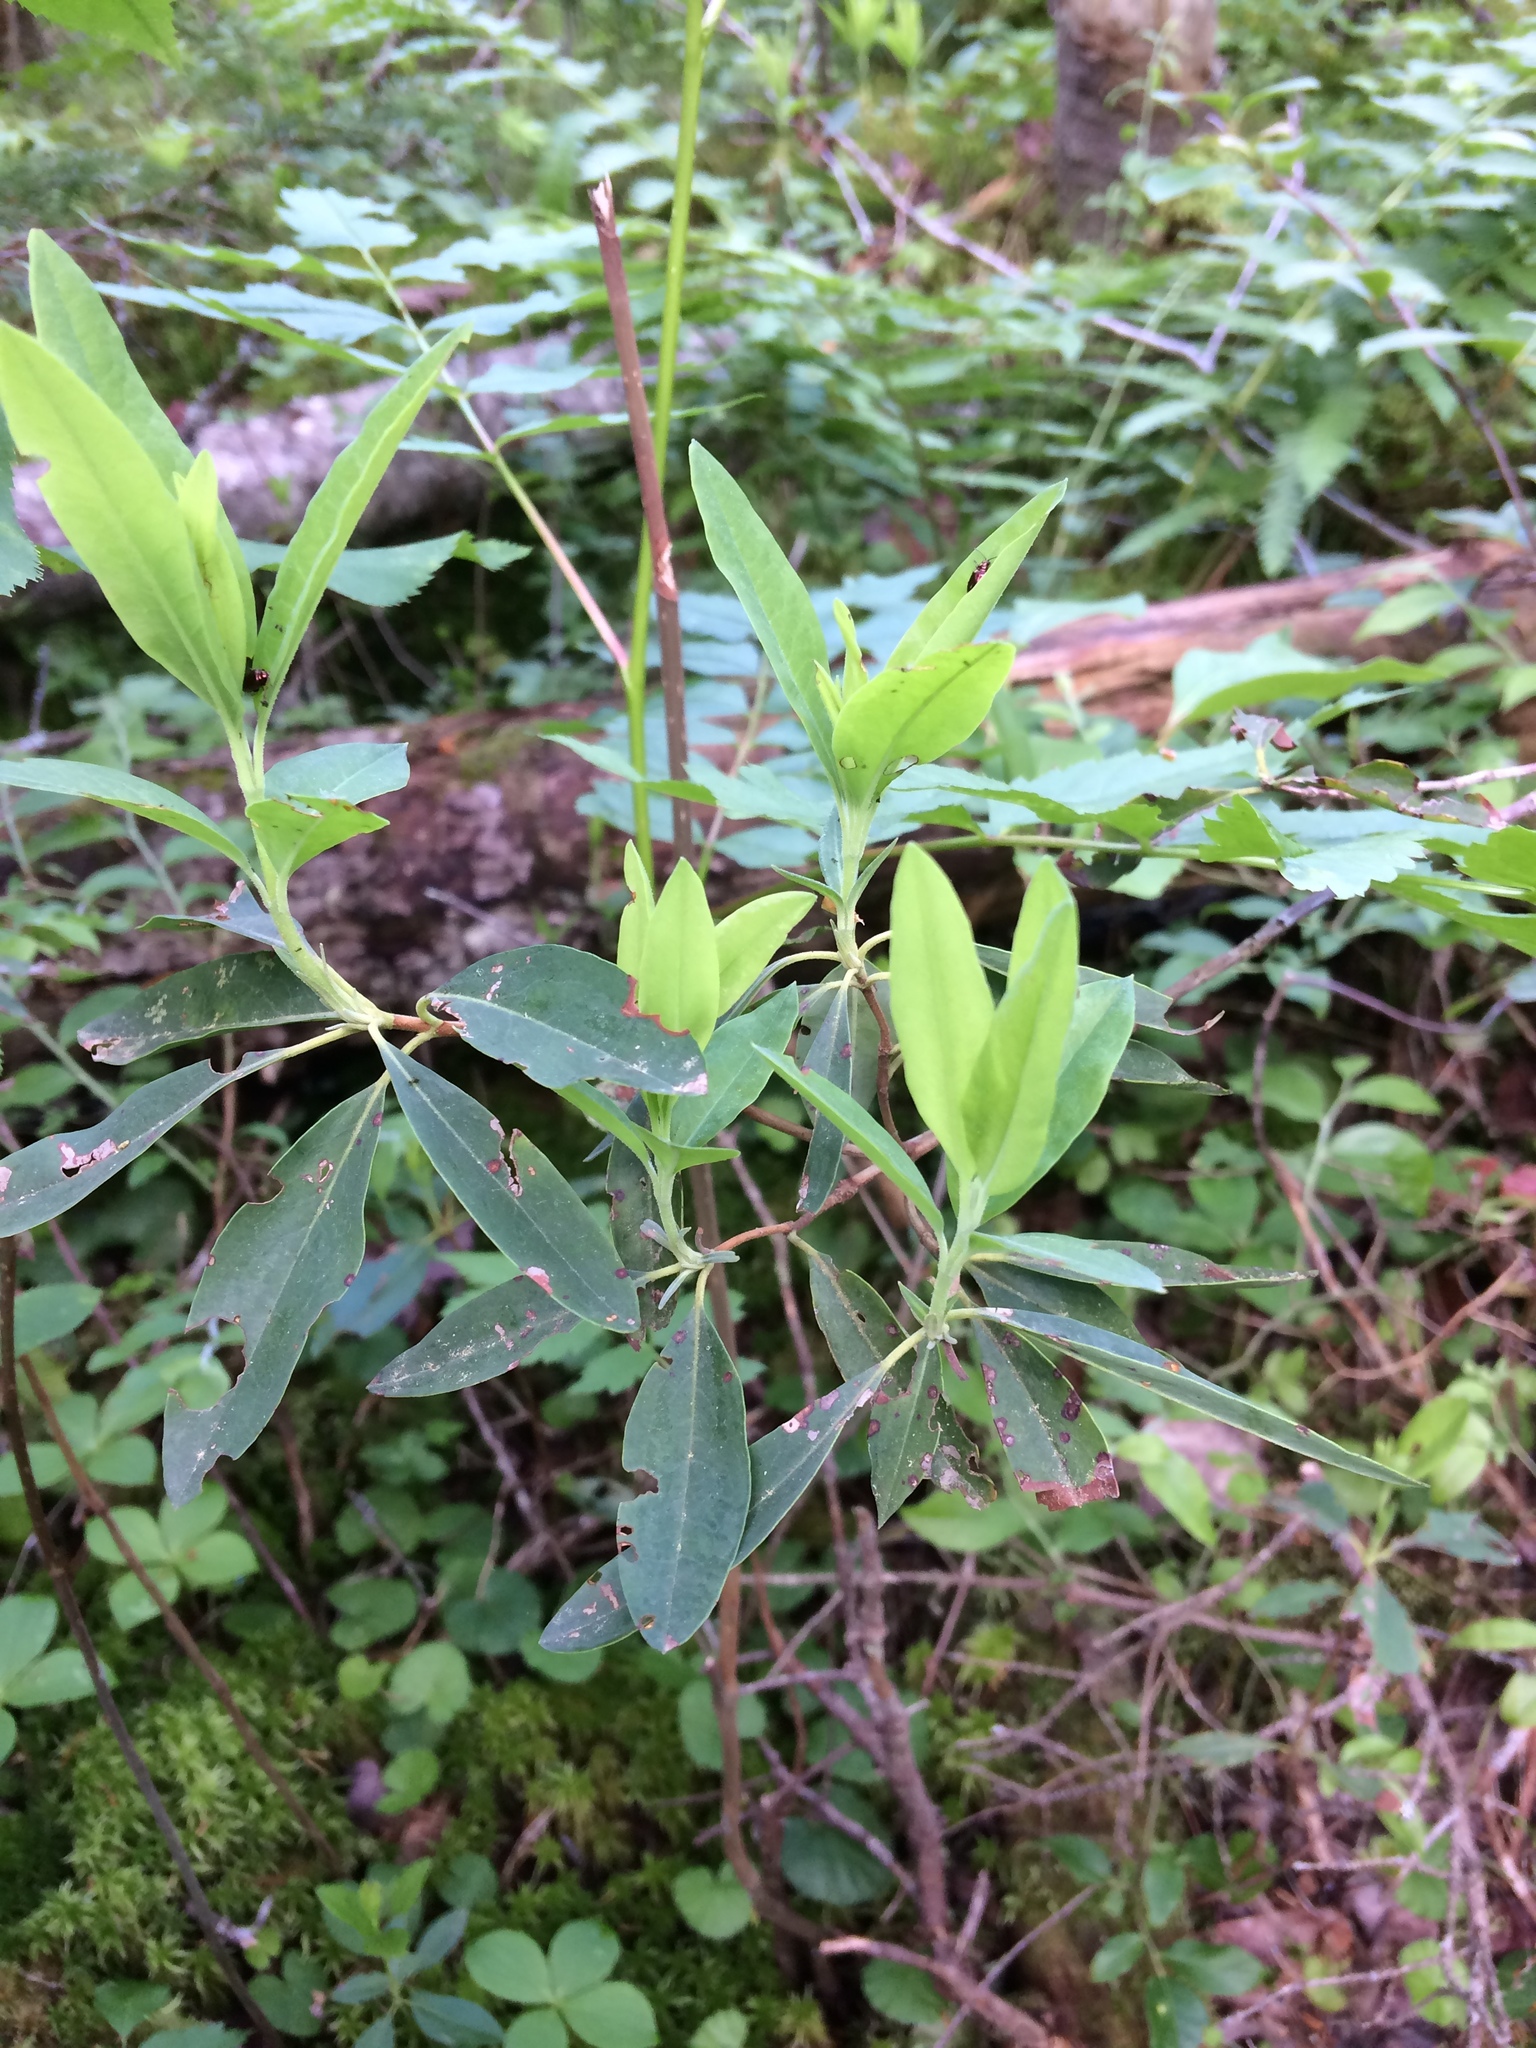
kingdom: Plantae
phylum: Tracheophyta
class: Magnoliopsida
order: Ericales
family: Ericaceae
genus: Kalmia
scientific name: Kalmia angustifolia
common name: Sheep-laurel
